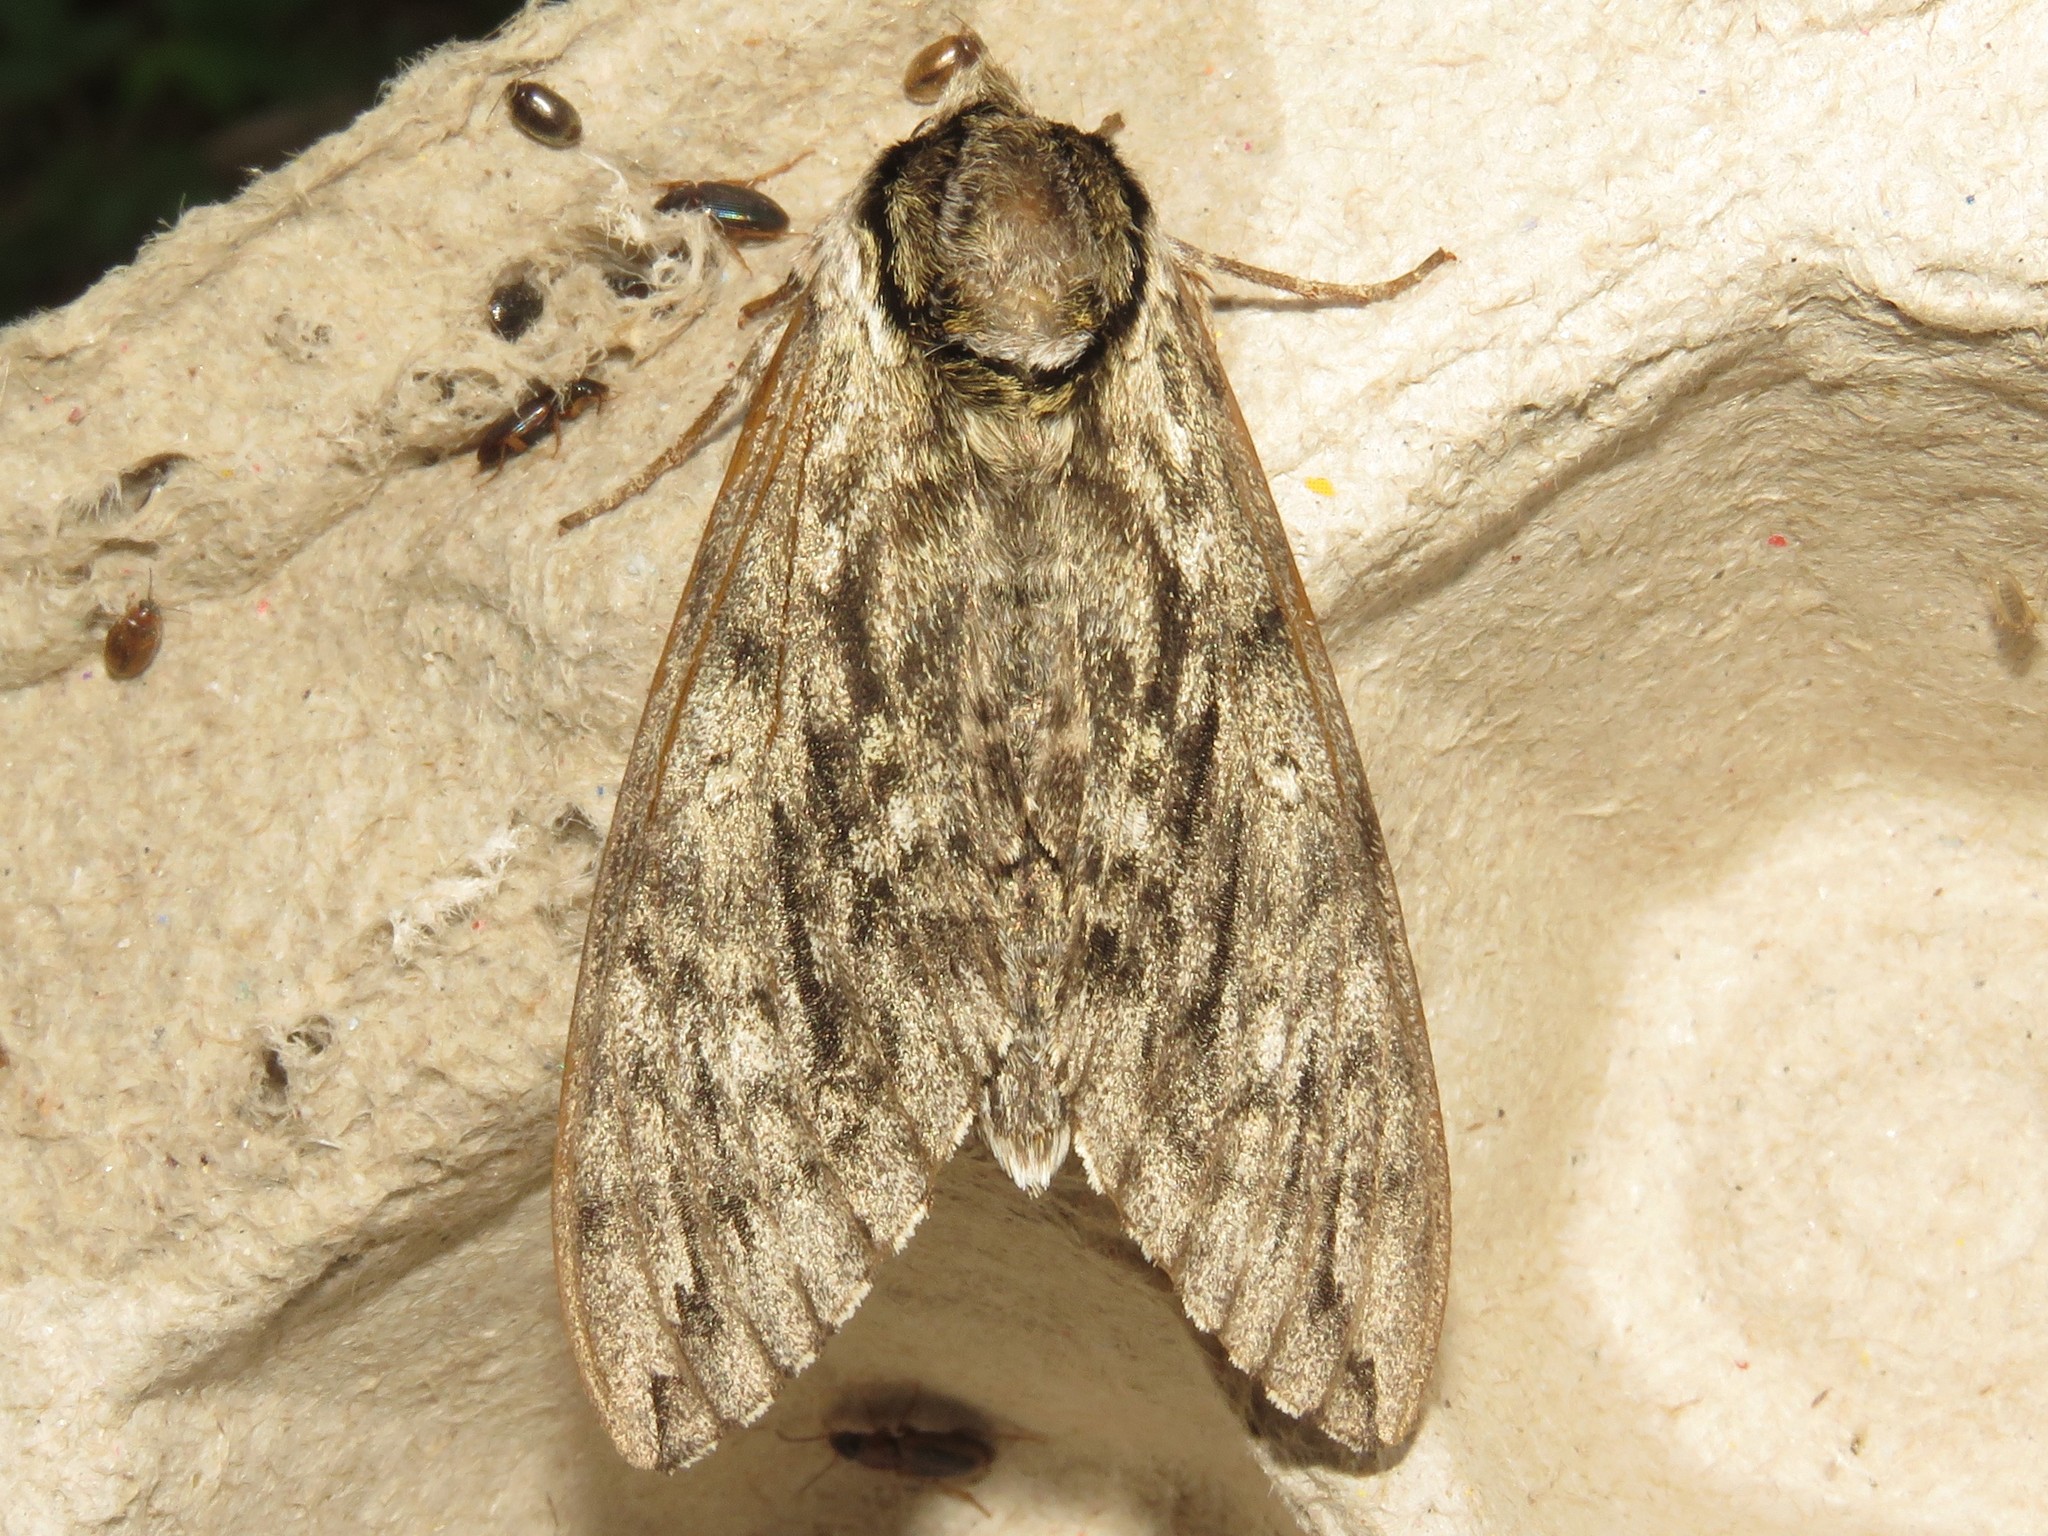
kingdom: Animalia
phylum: Arthropoda
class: Insecta
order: Lepidoptera
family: Sphingidae
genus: Ceratomia
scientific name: Ceratomia undulosa
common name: Waved sphinx
